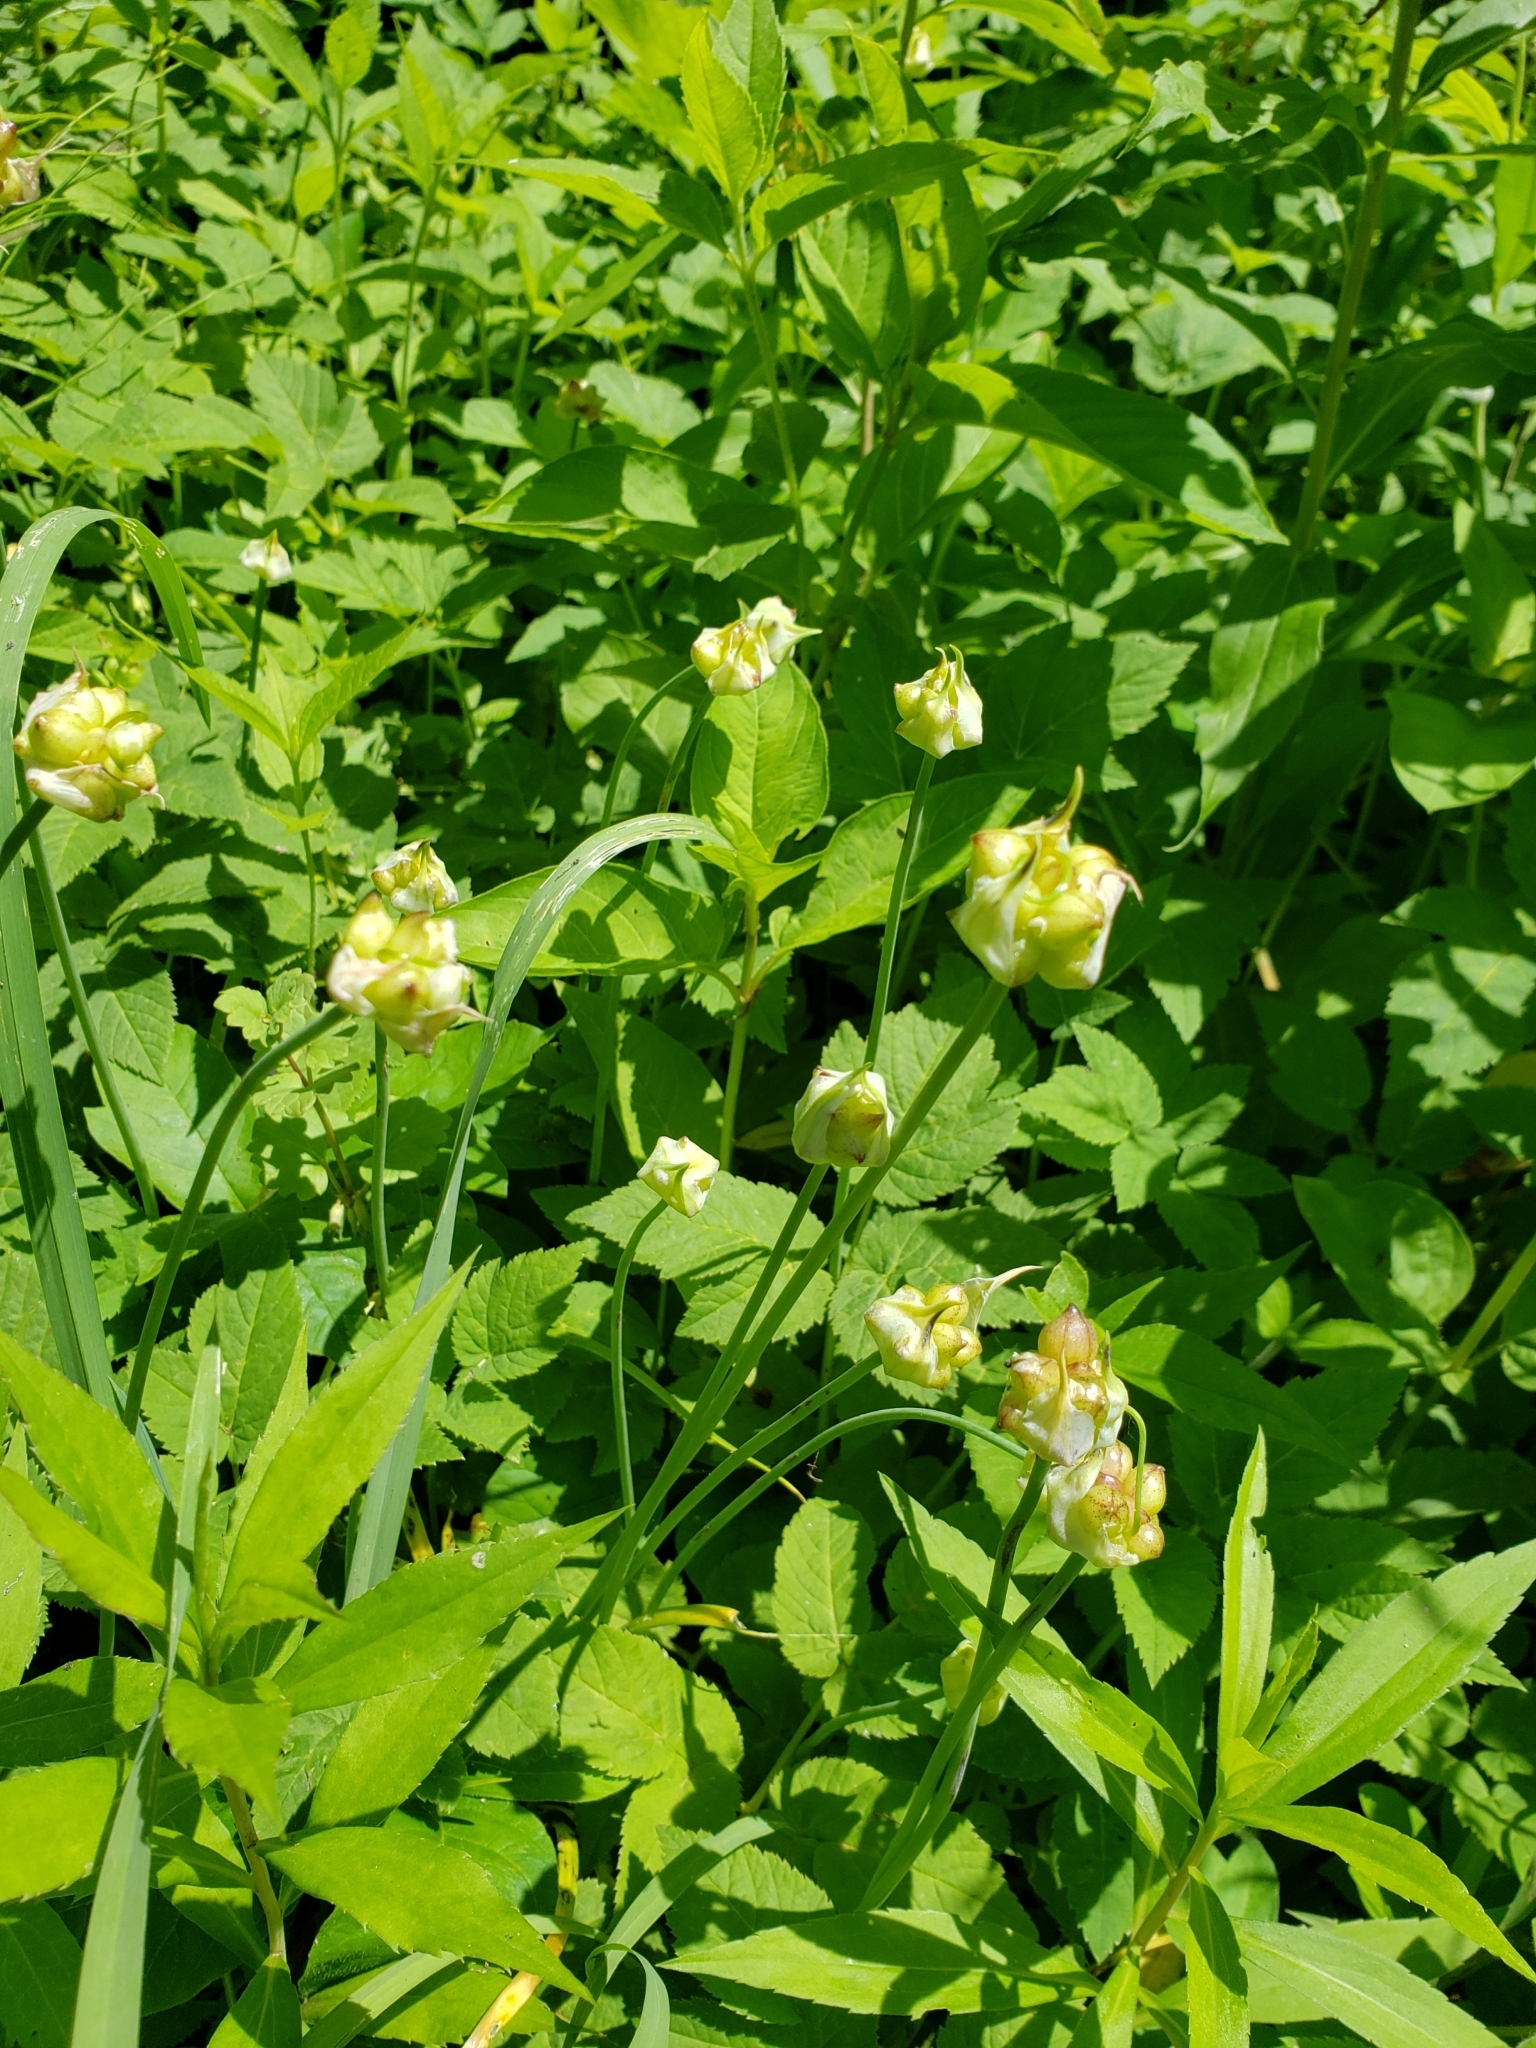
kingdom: Plantae
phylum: Tracheophyta
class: Liliopsida
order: Asparagales
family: Amaryllidaceae
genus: Allium
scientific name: Allium canadense
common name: Meadow garlic
